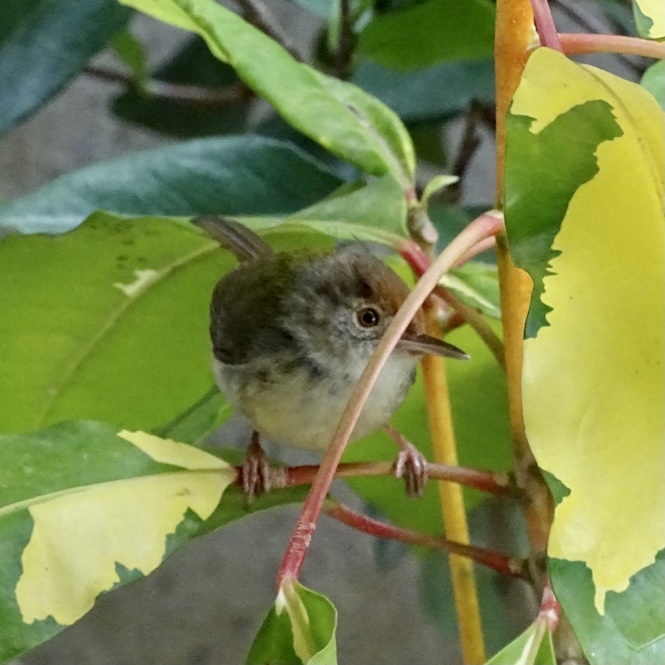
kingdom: Animalia
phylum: Chordata
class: Aves
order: Passeriformes
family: Cisticolidae
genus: Orthotomus
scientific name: Orthotomus sutorius
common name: Common tailorbird
